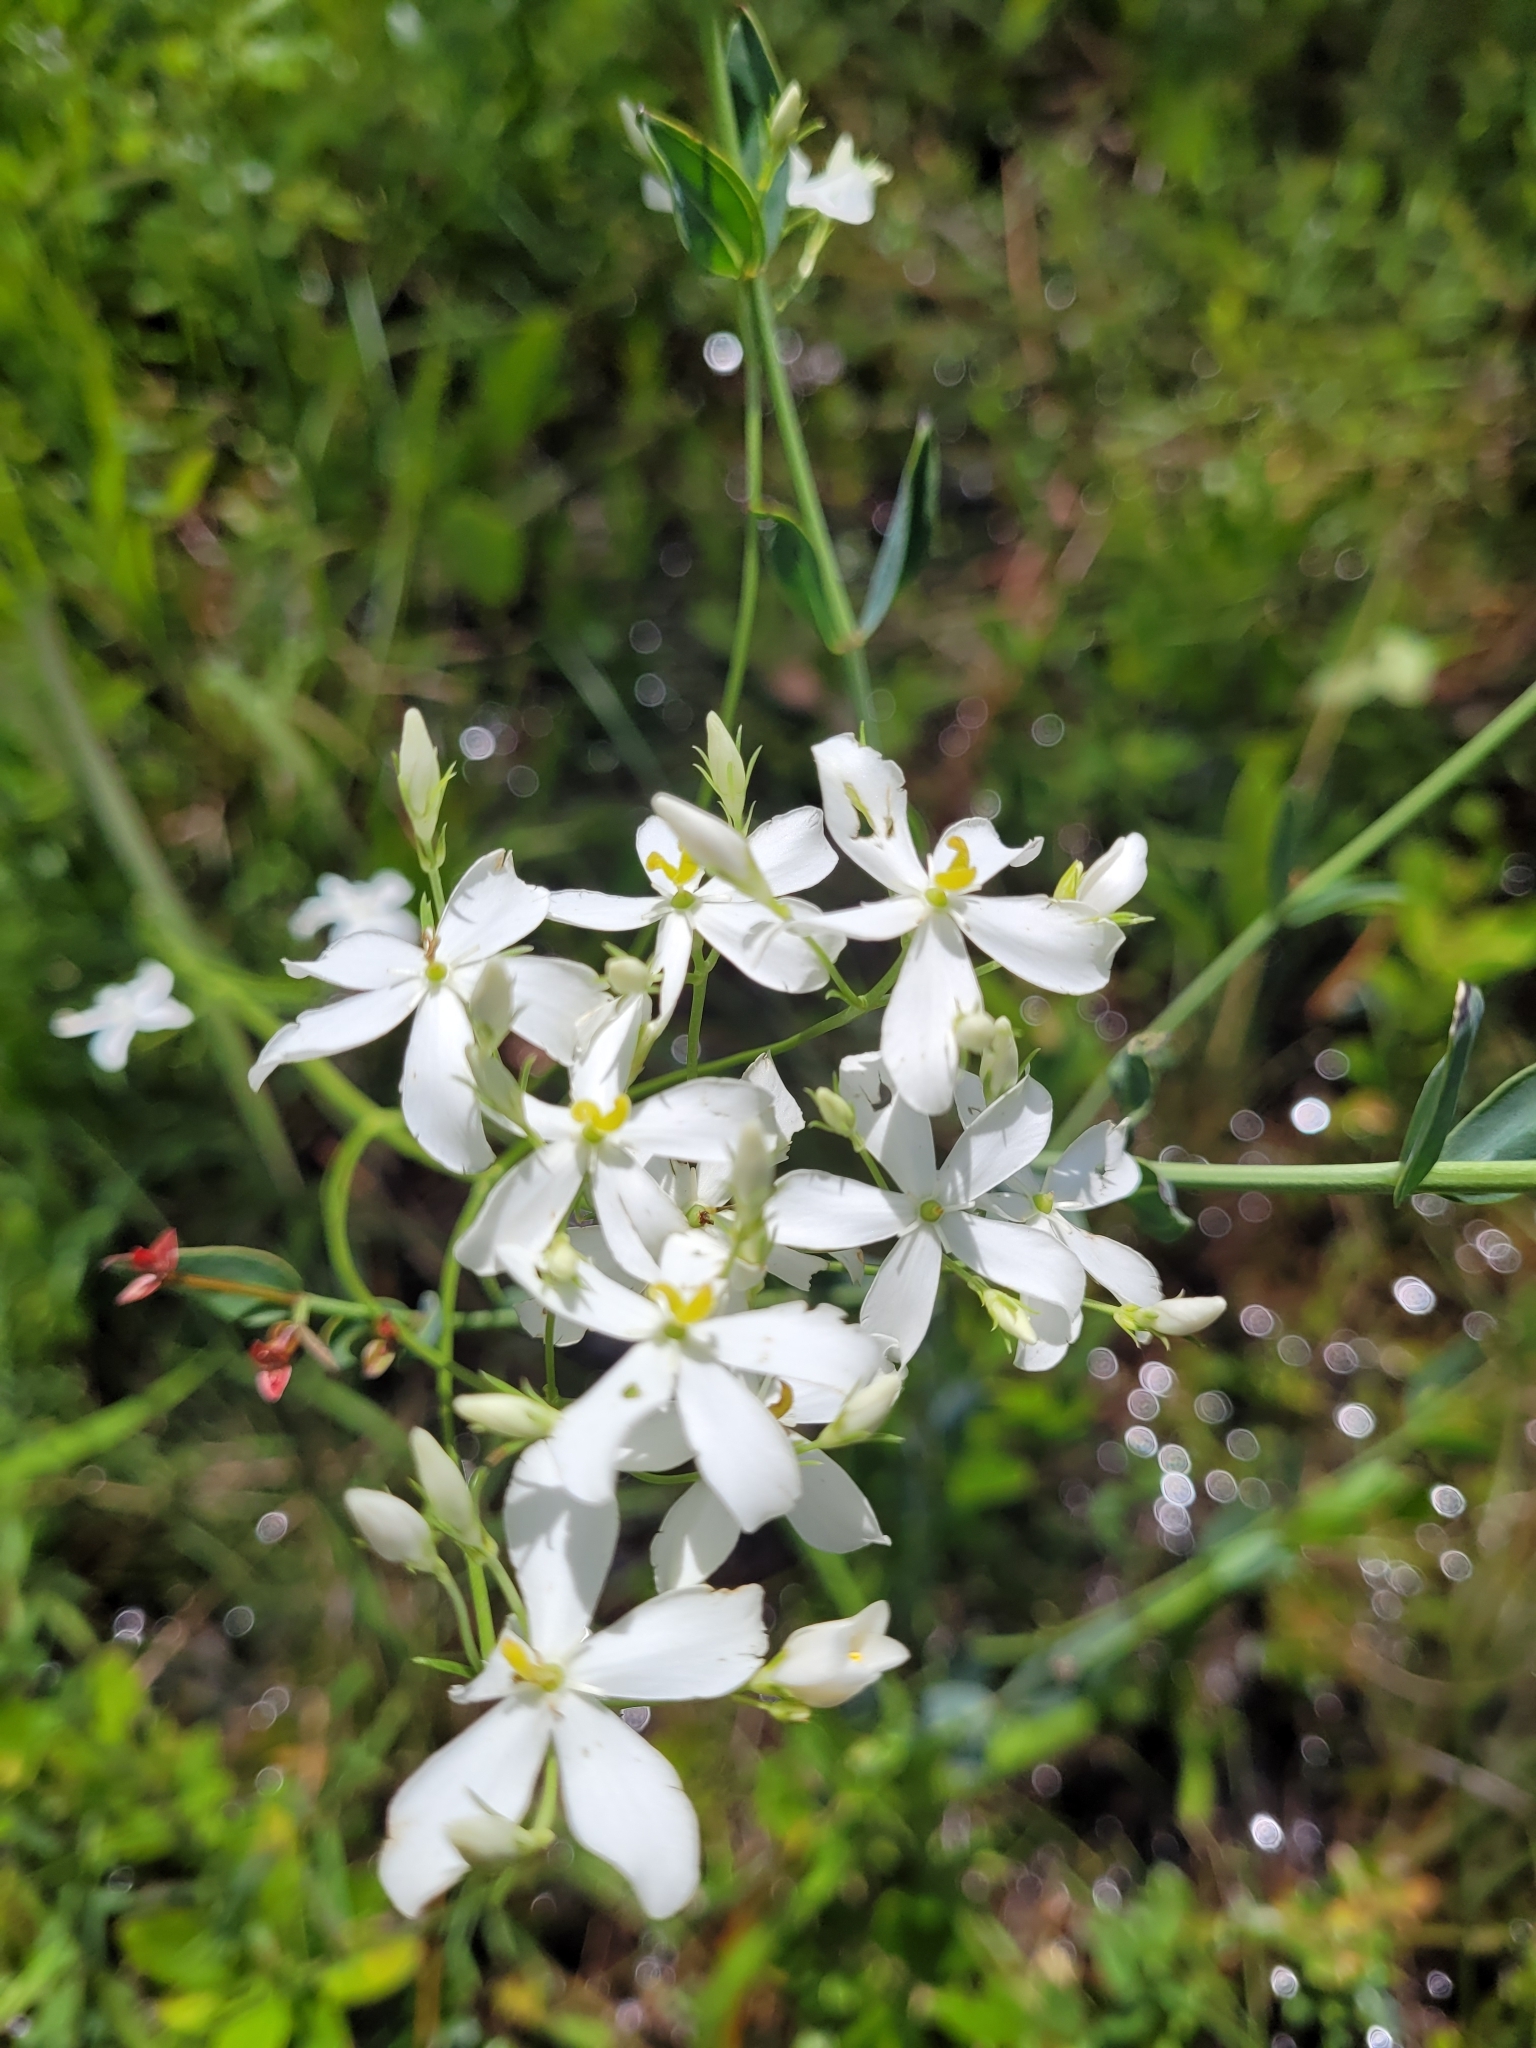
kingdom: Plantae
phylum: Tracheophyta
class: Magnoliopsida
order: Gentianales
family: Gentianaceae
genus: Sabatia
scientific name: Sabatia difformis
